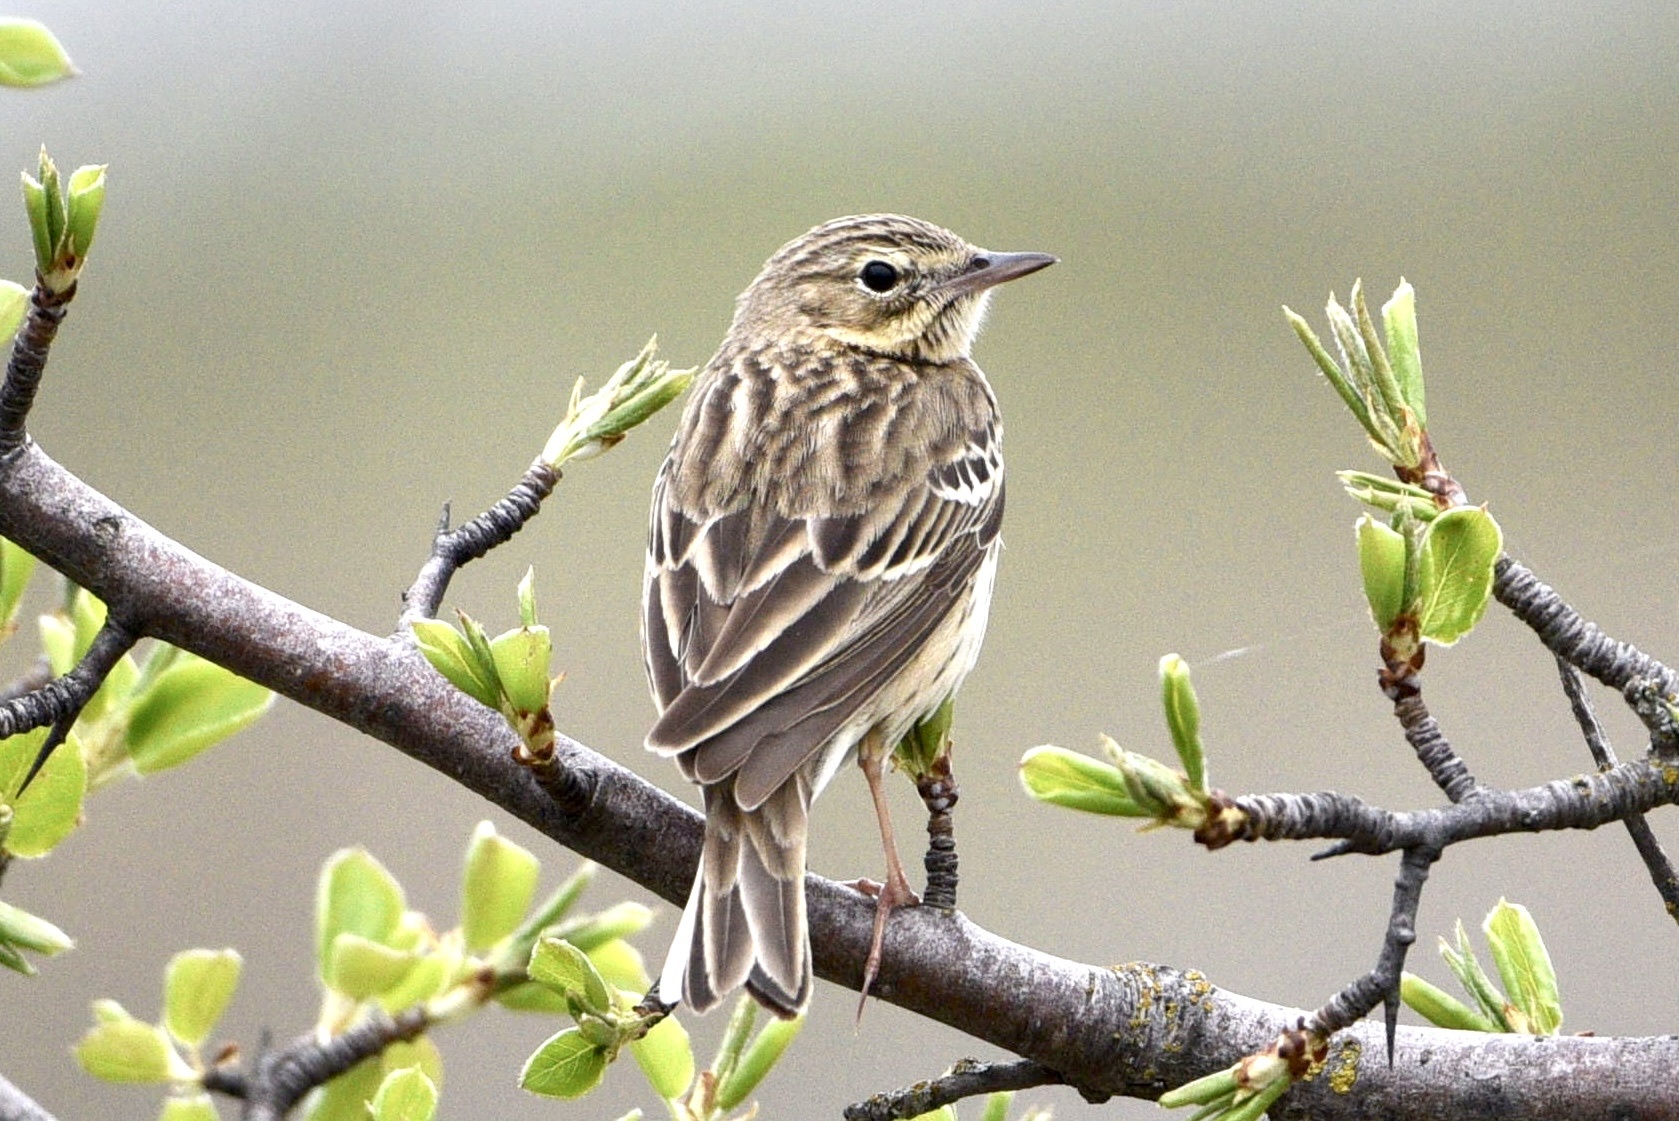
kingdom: Animalia
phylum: Chordata
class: Aves
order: Passeriformes
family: Motacillidae
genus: Anthus
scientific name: Anthus trivialis
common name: Tree pipit
